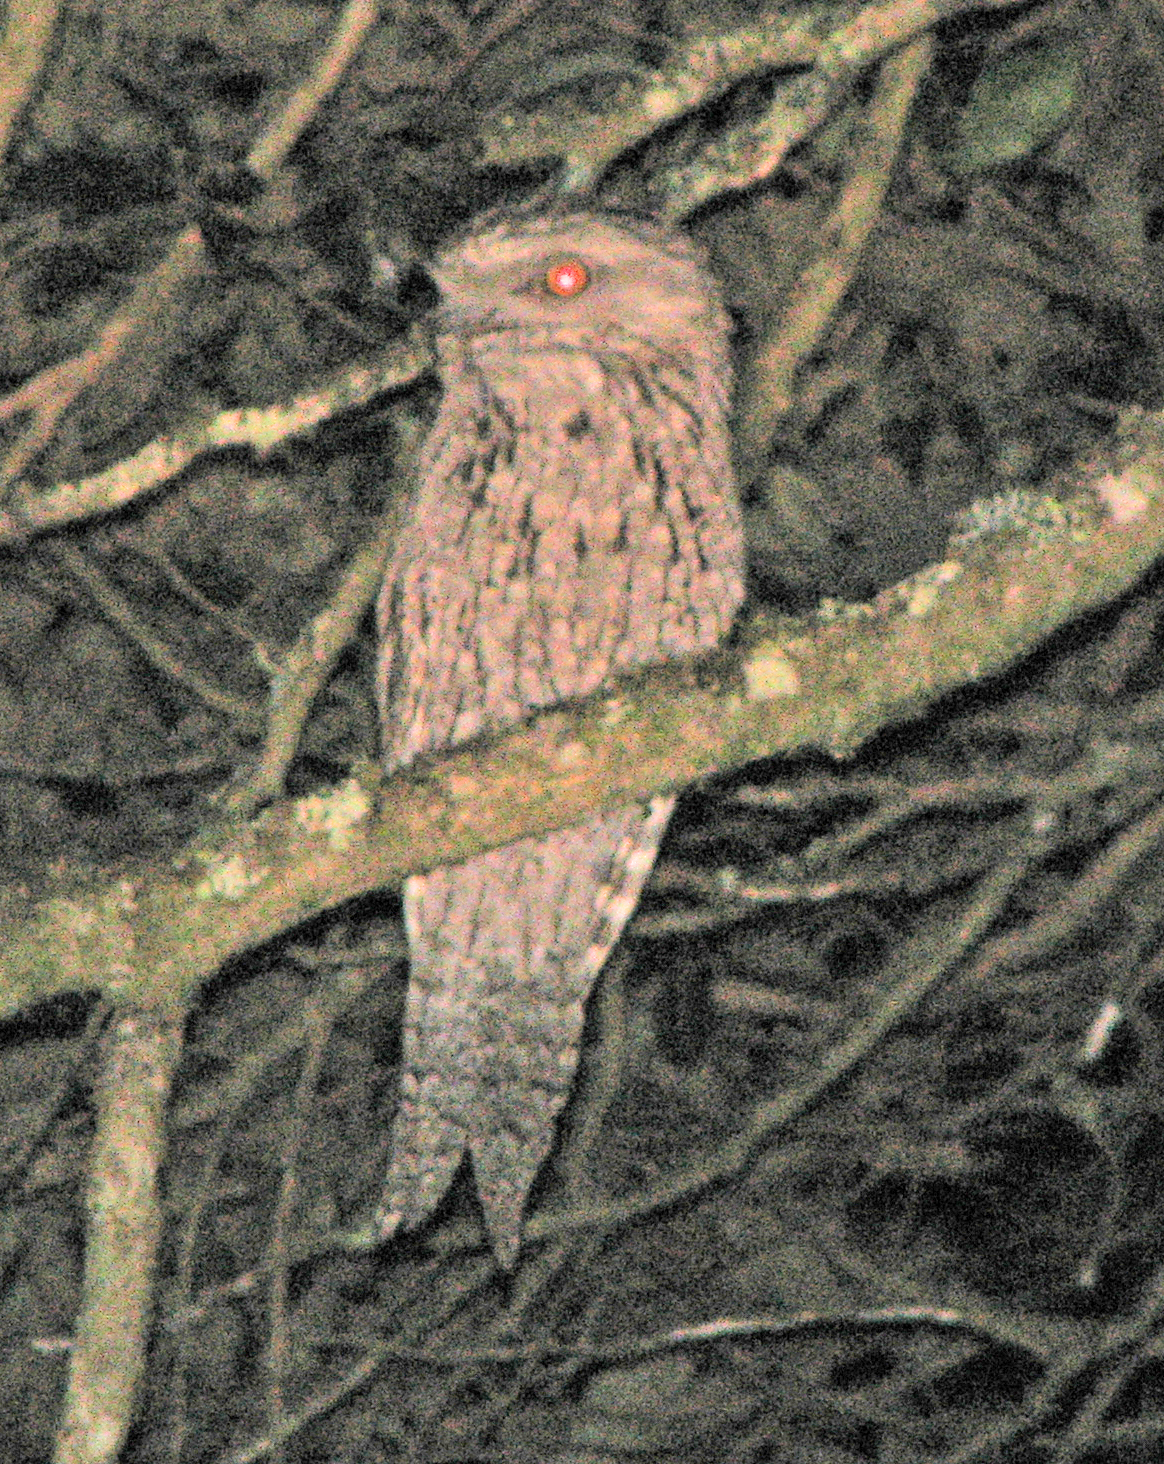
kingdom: Animalia
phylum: Chordata
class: Aves
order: Caprimulgiformes
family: Podargidae
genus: Podargus
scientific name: Podargus strigoides
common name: Tawny frogmouth
